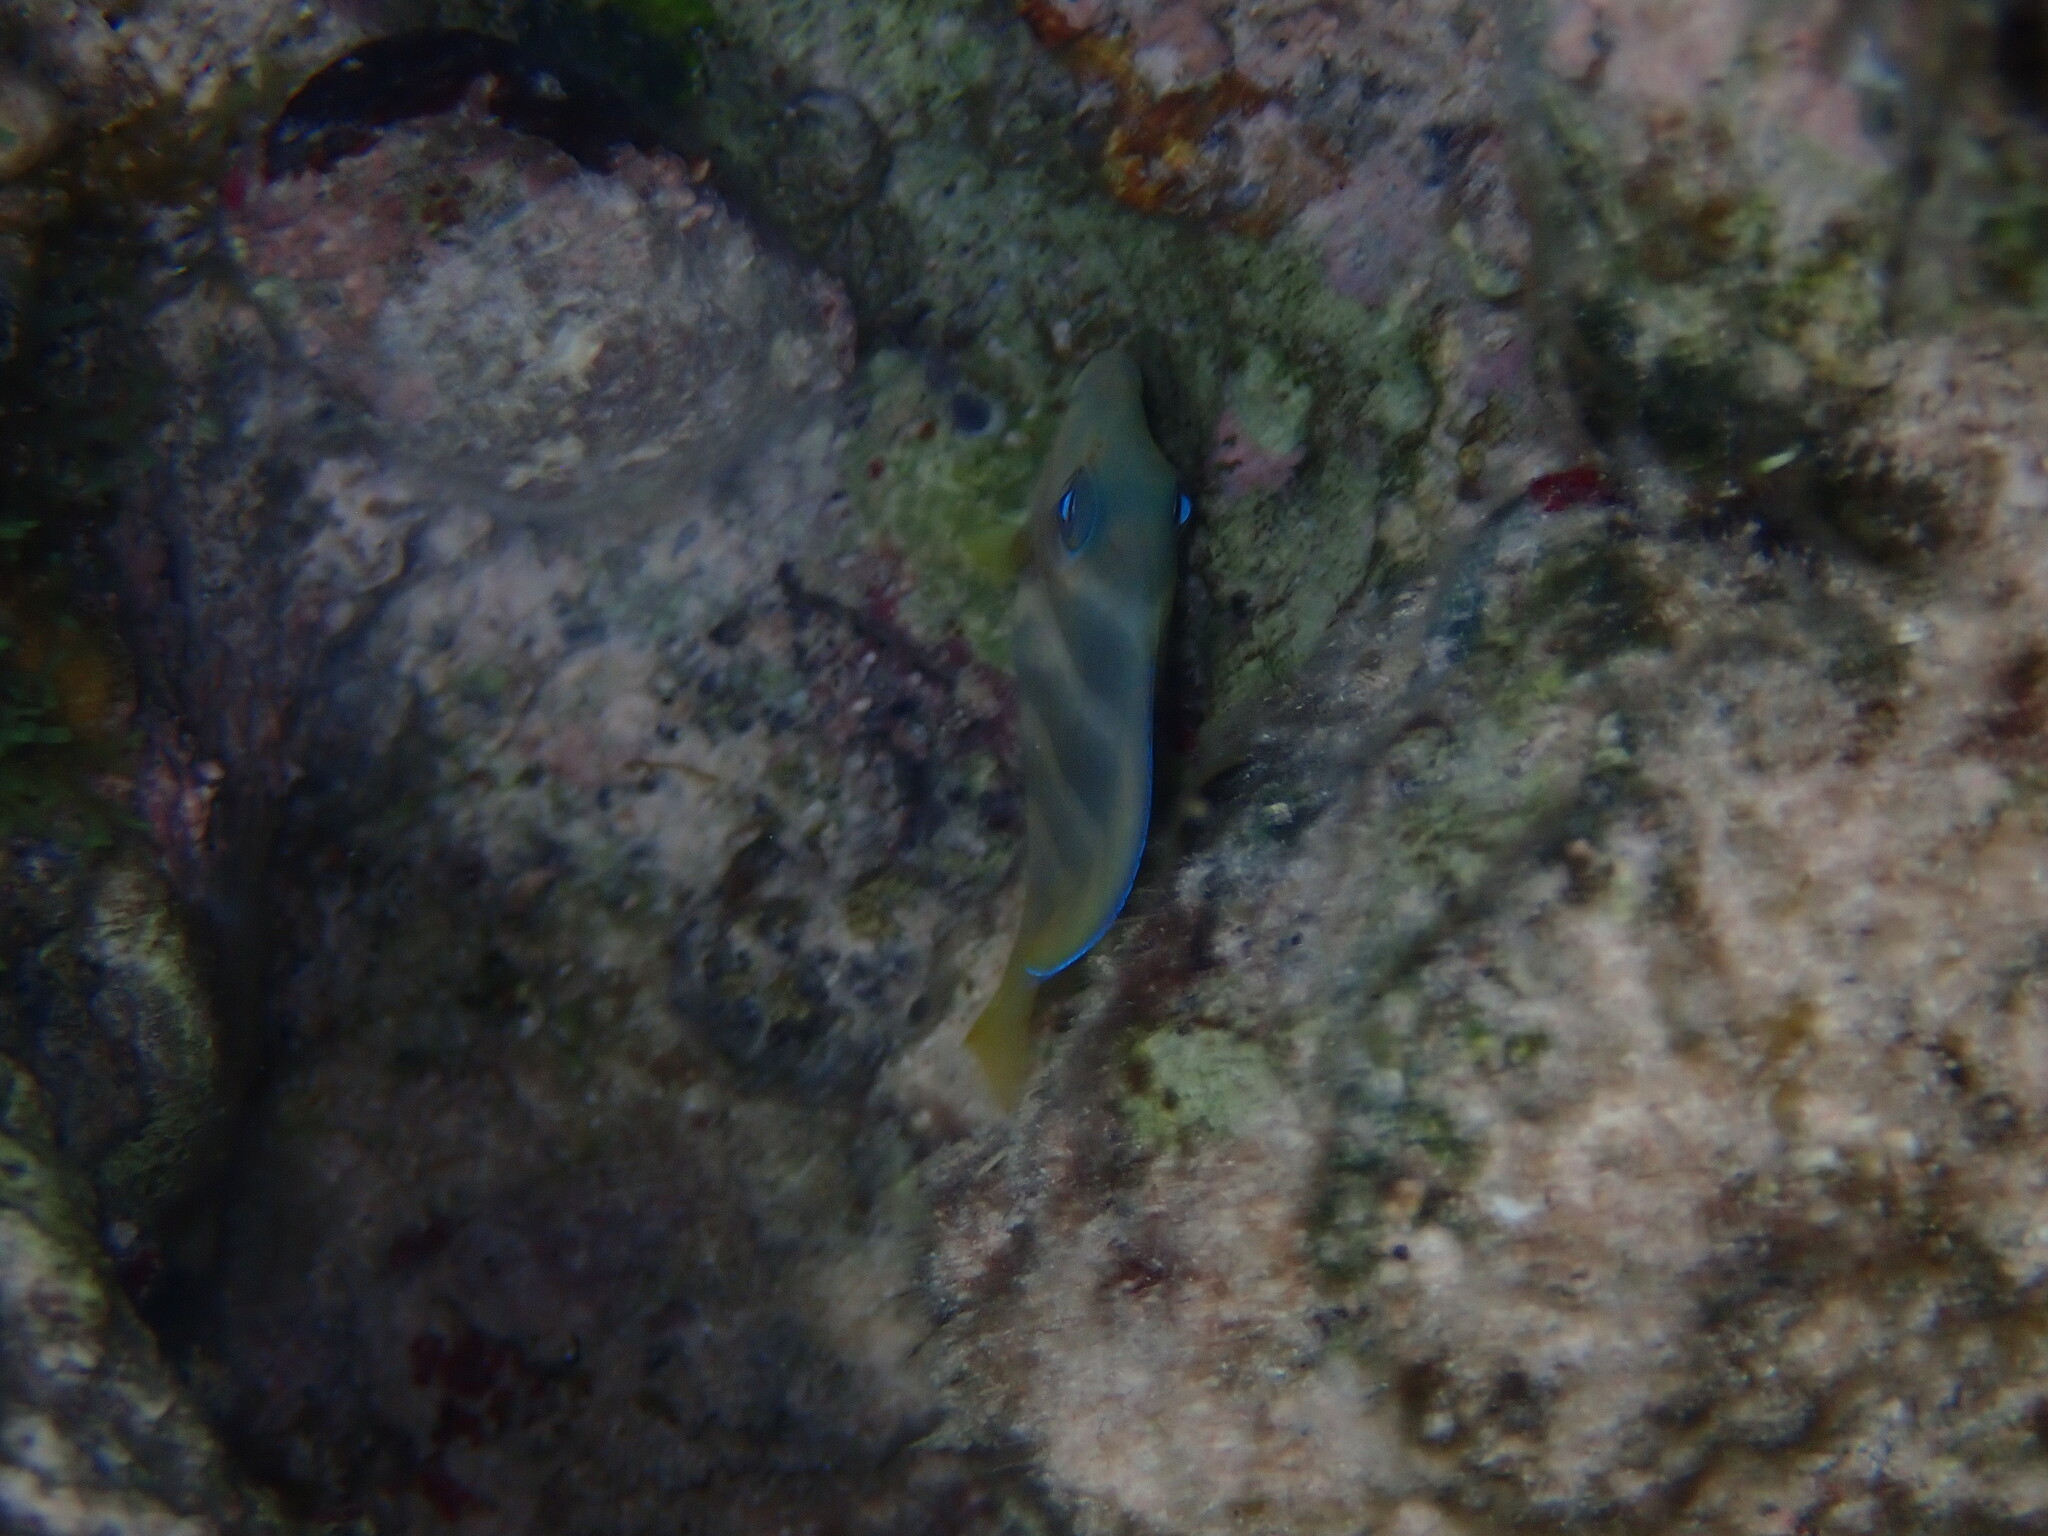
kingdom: Animalia
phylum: Chordata
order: Perciformes
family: Acanthuridae
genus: Acanthurus
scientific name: Acanthurus coeruleus
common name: Blue tang
